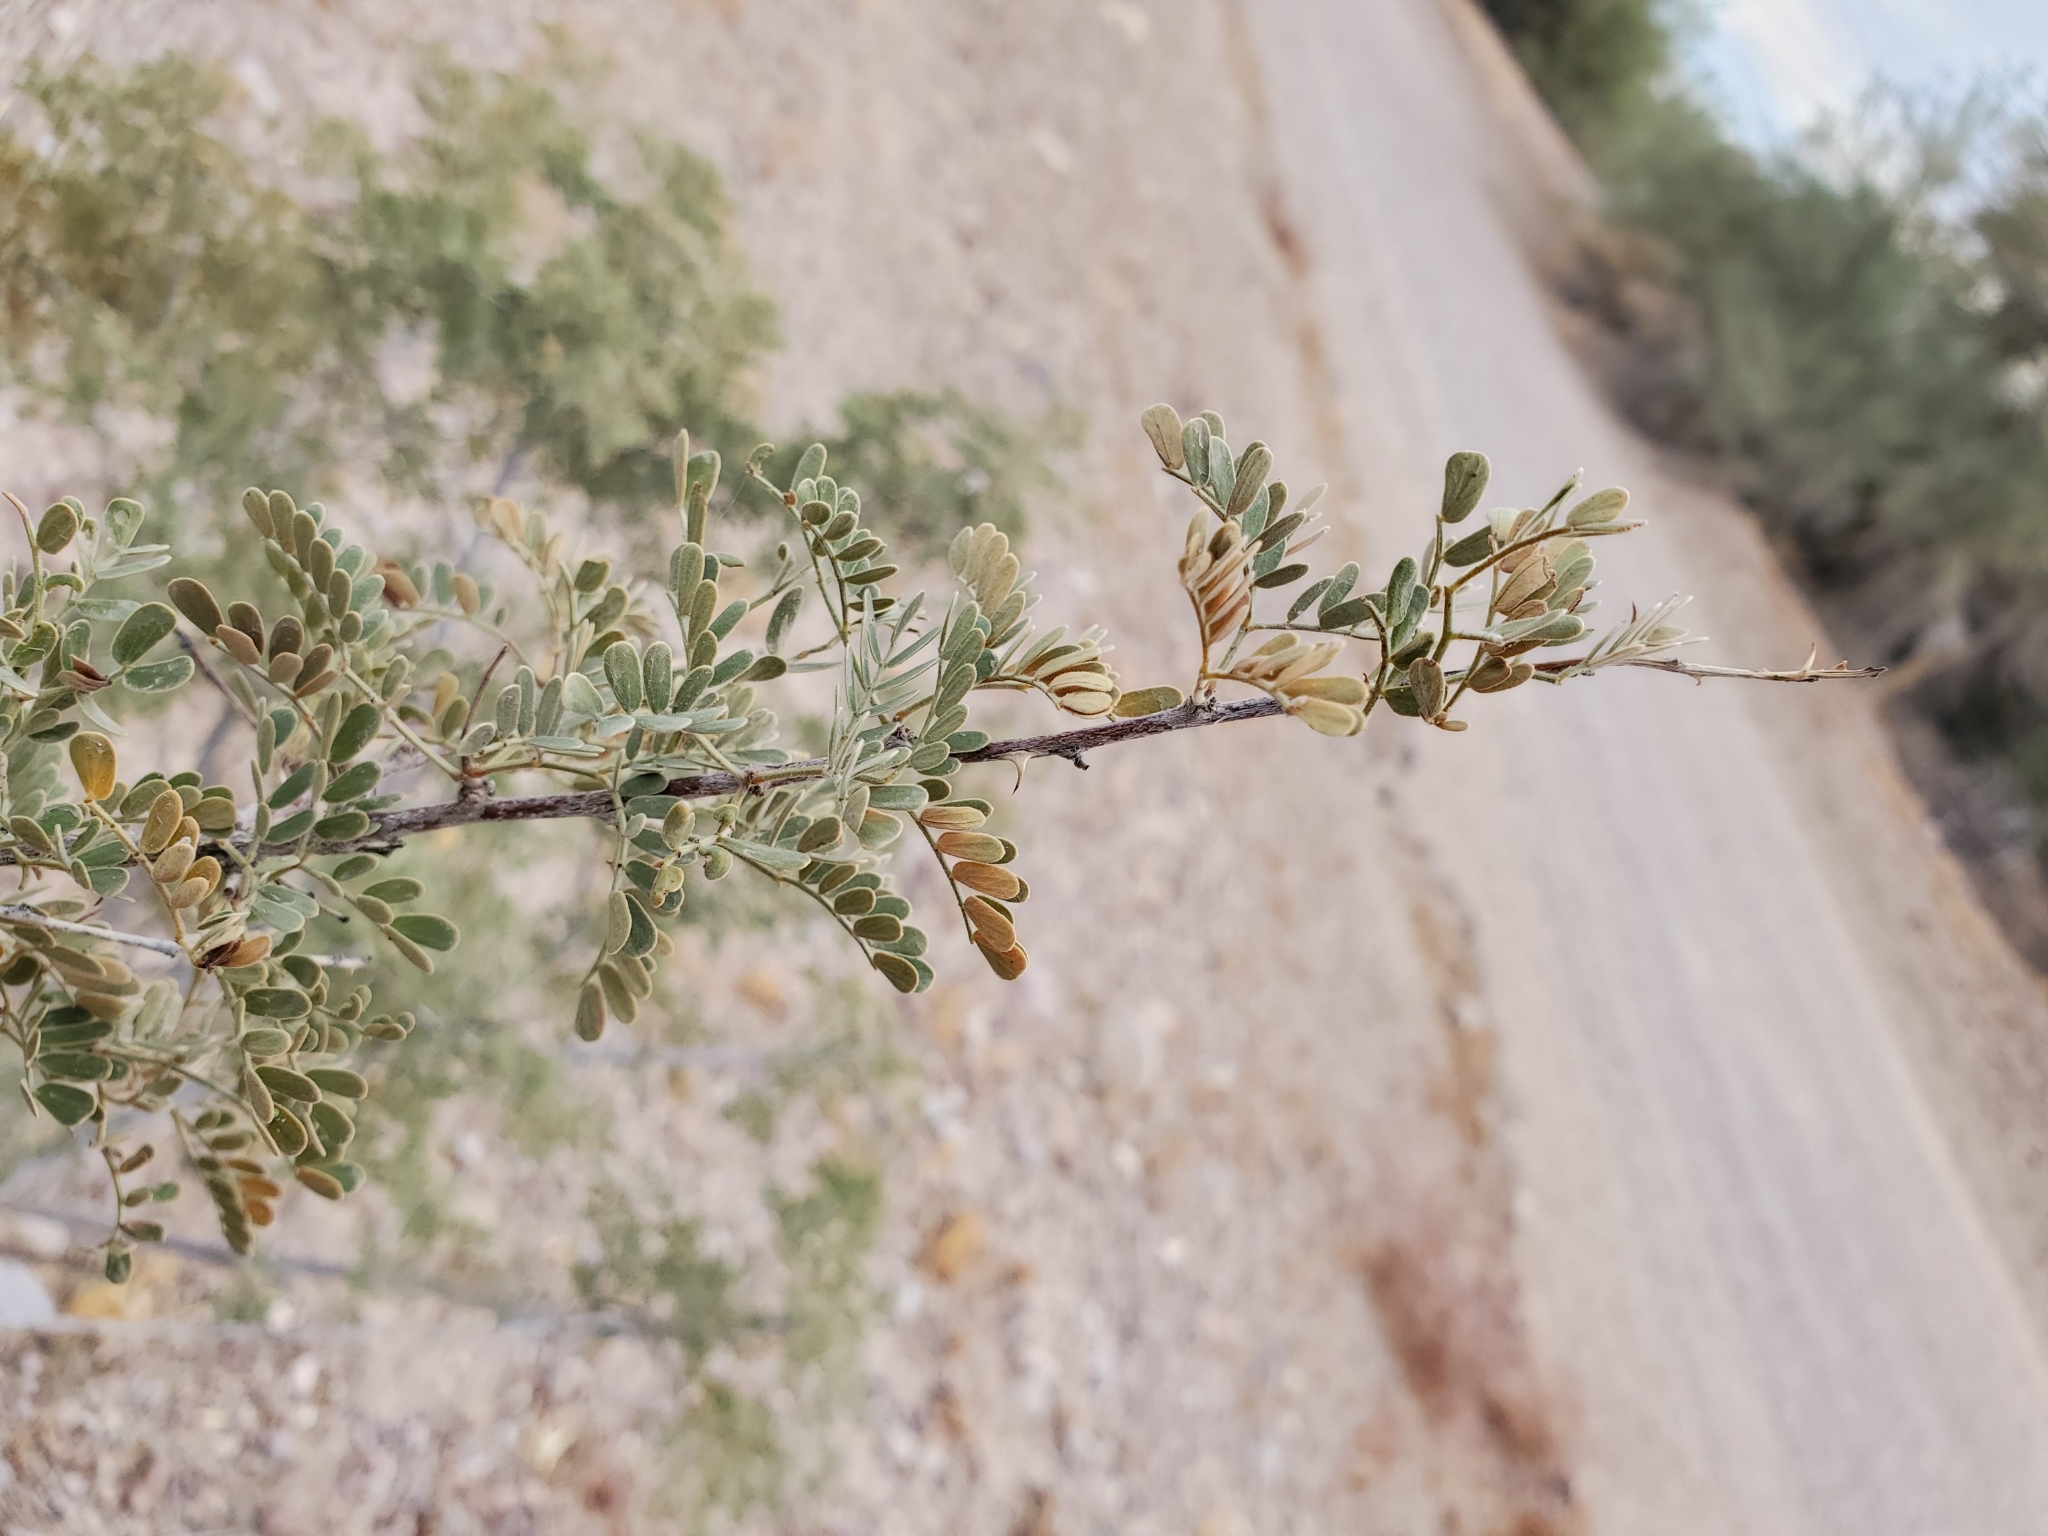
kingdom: Plantae
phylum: Tracheophyta
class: Magnoliopsida
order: Fabales
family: Fabaceae
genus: Senegalia
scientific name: Senegalia greggii
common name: Texas-mimosa
